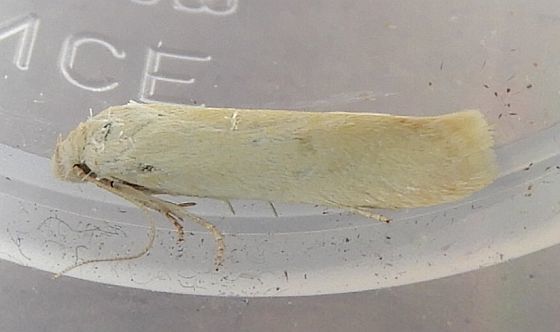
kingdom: Animalia
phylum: Arthropoda
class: Insecta
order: Lepidoptera
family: Gelechiidae
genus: Frumenta
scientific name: Frumenta nephelomicta
